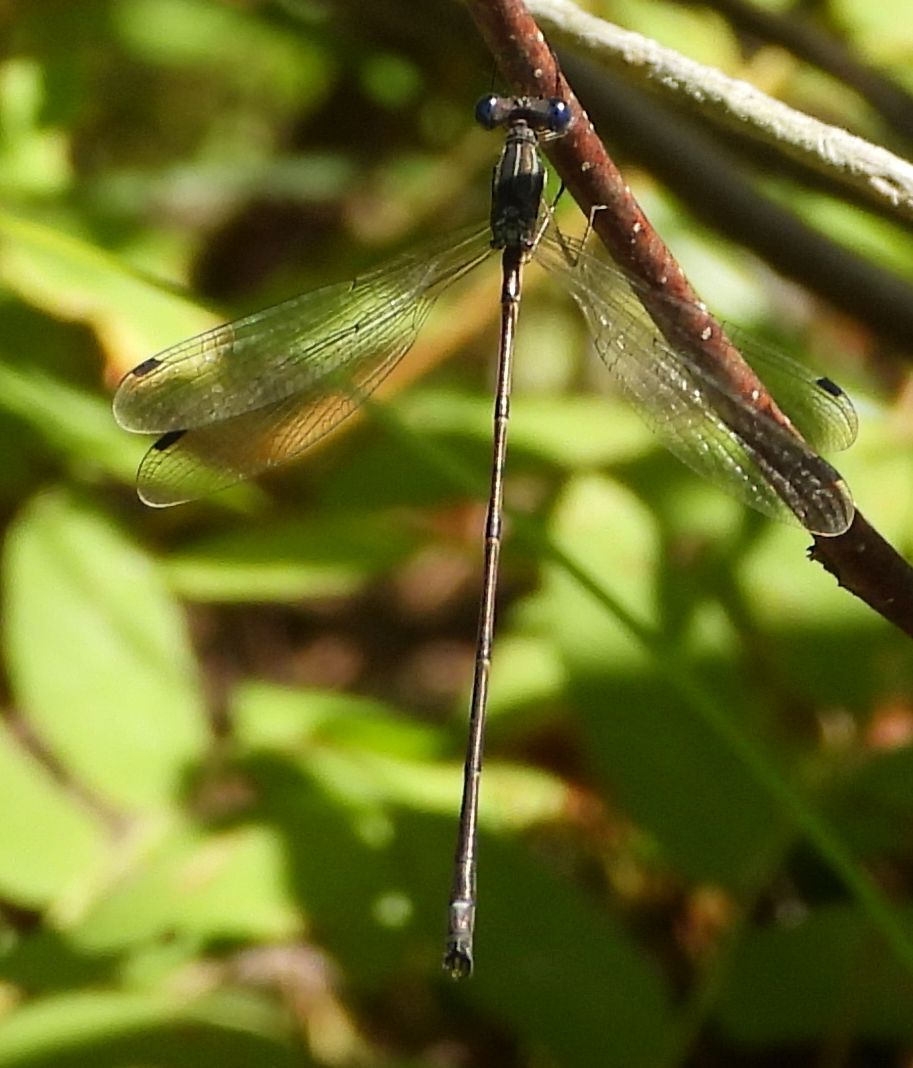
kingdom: Animalia
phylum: Arthropoda
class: Insecta
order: Odonata
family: Lestidae
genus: Lestes
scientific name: Lestes rectangularis
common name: Slender spreadwing
